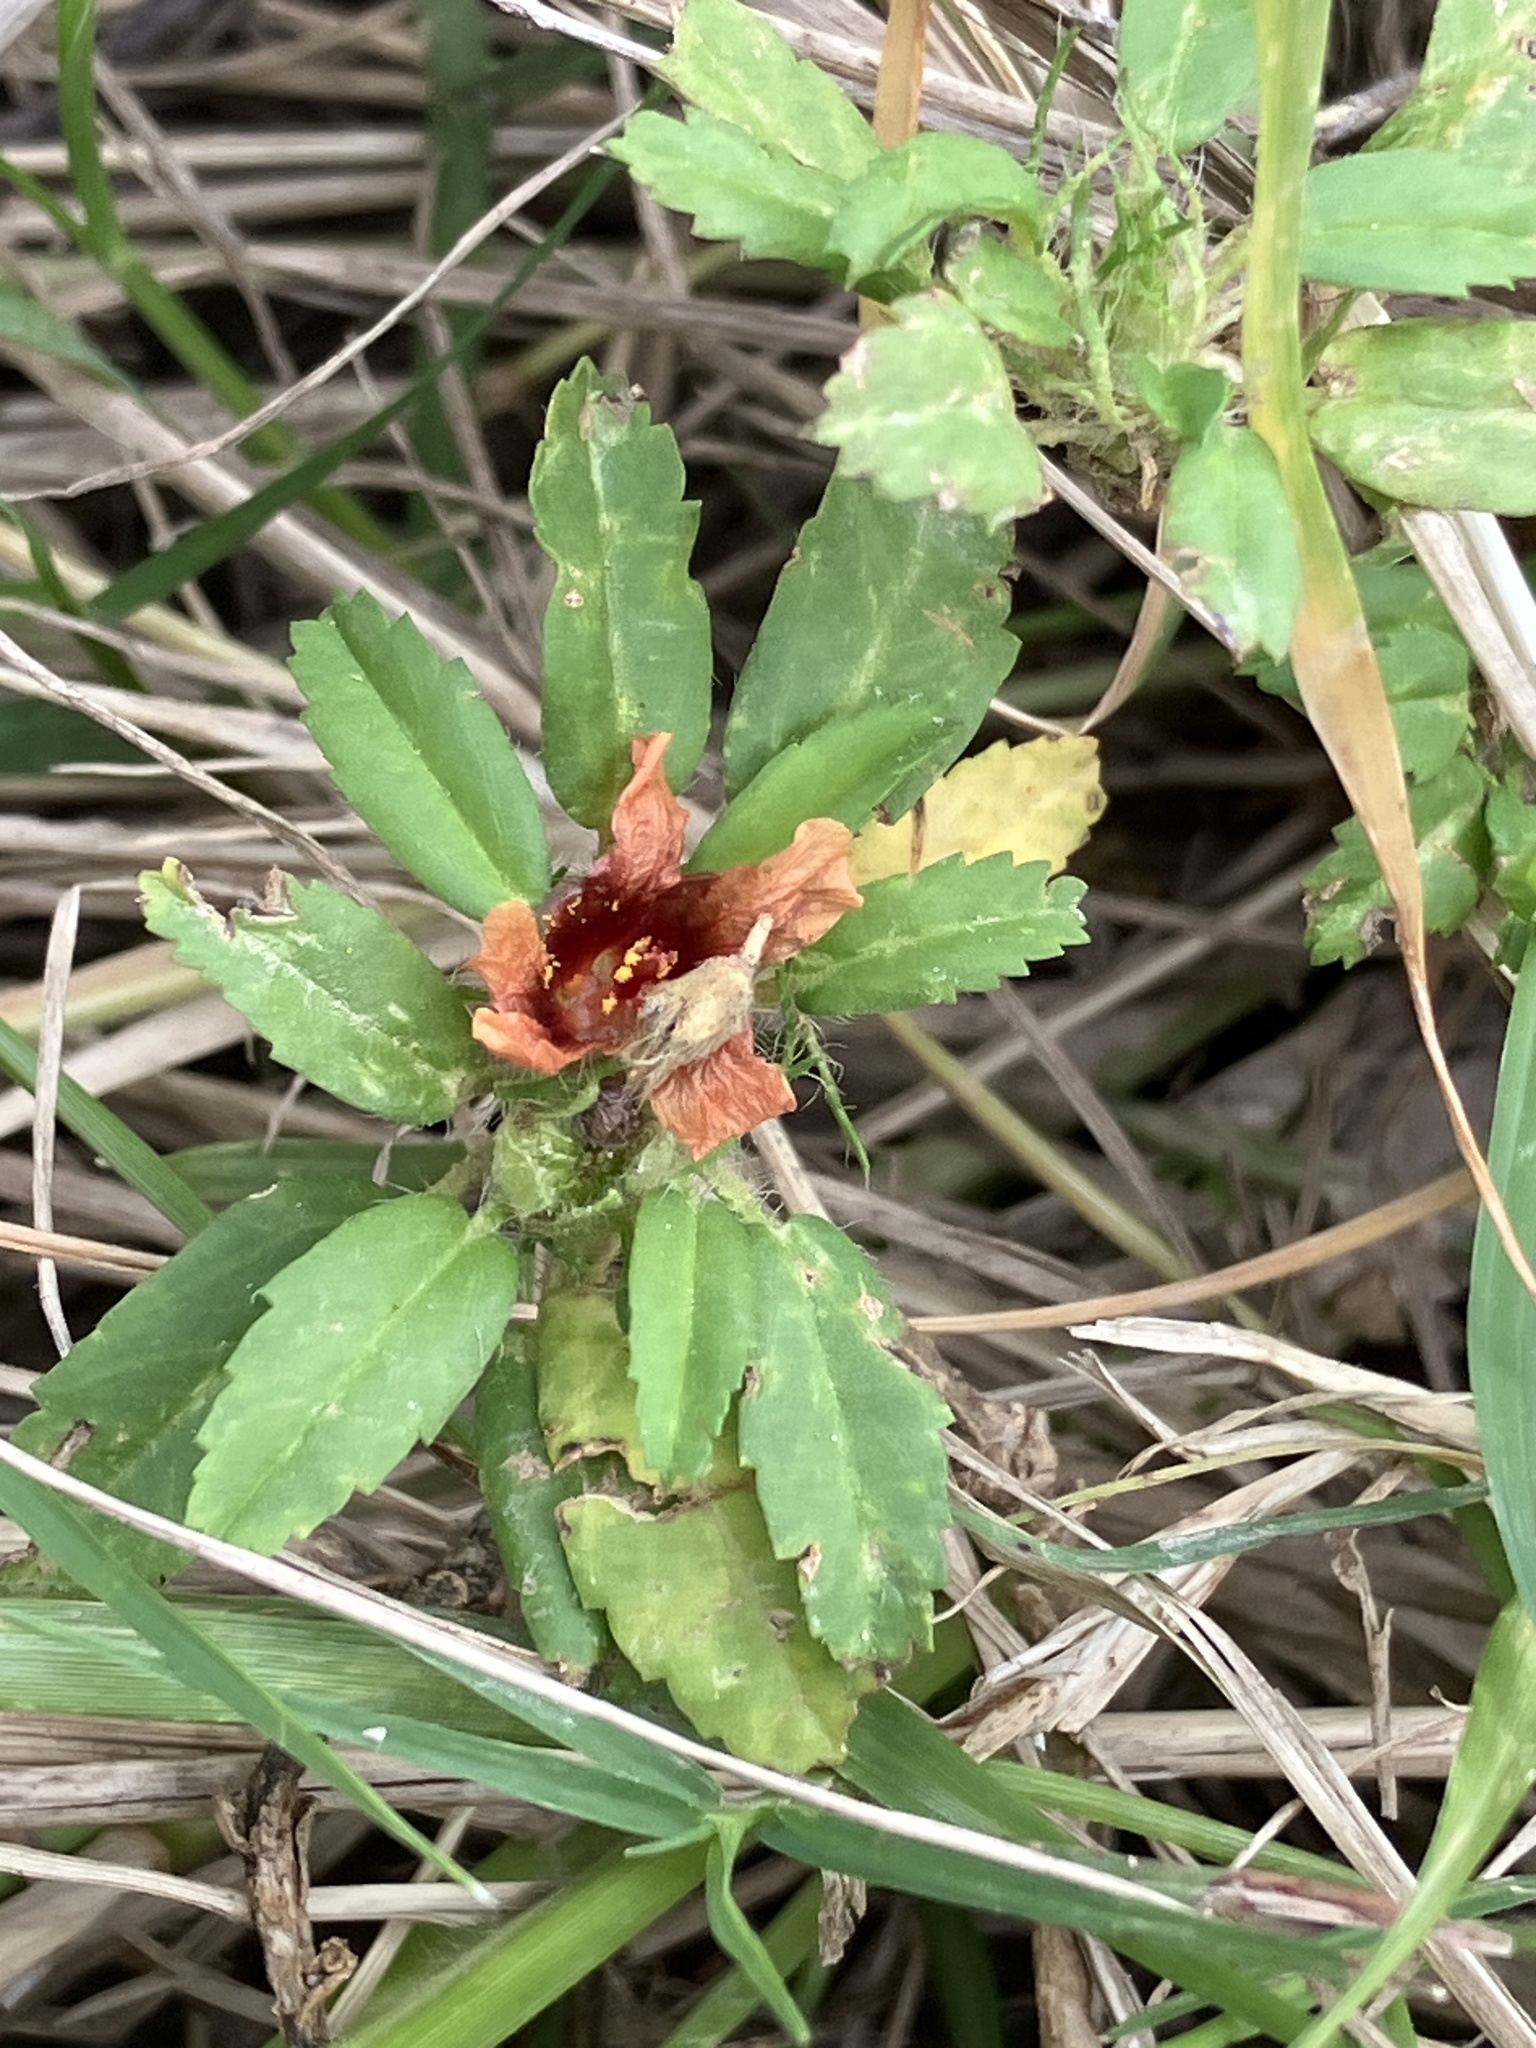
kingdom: Plantae
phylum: Tracheophyta
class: Magnoliopsida
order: Malvales
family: Malvaceae
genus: Sida
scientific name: Sida ciliaris
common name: Bracted fanpetals
